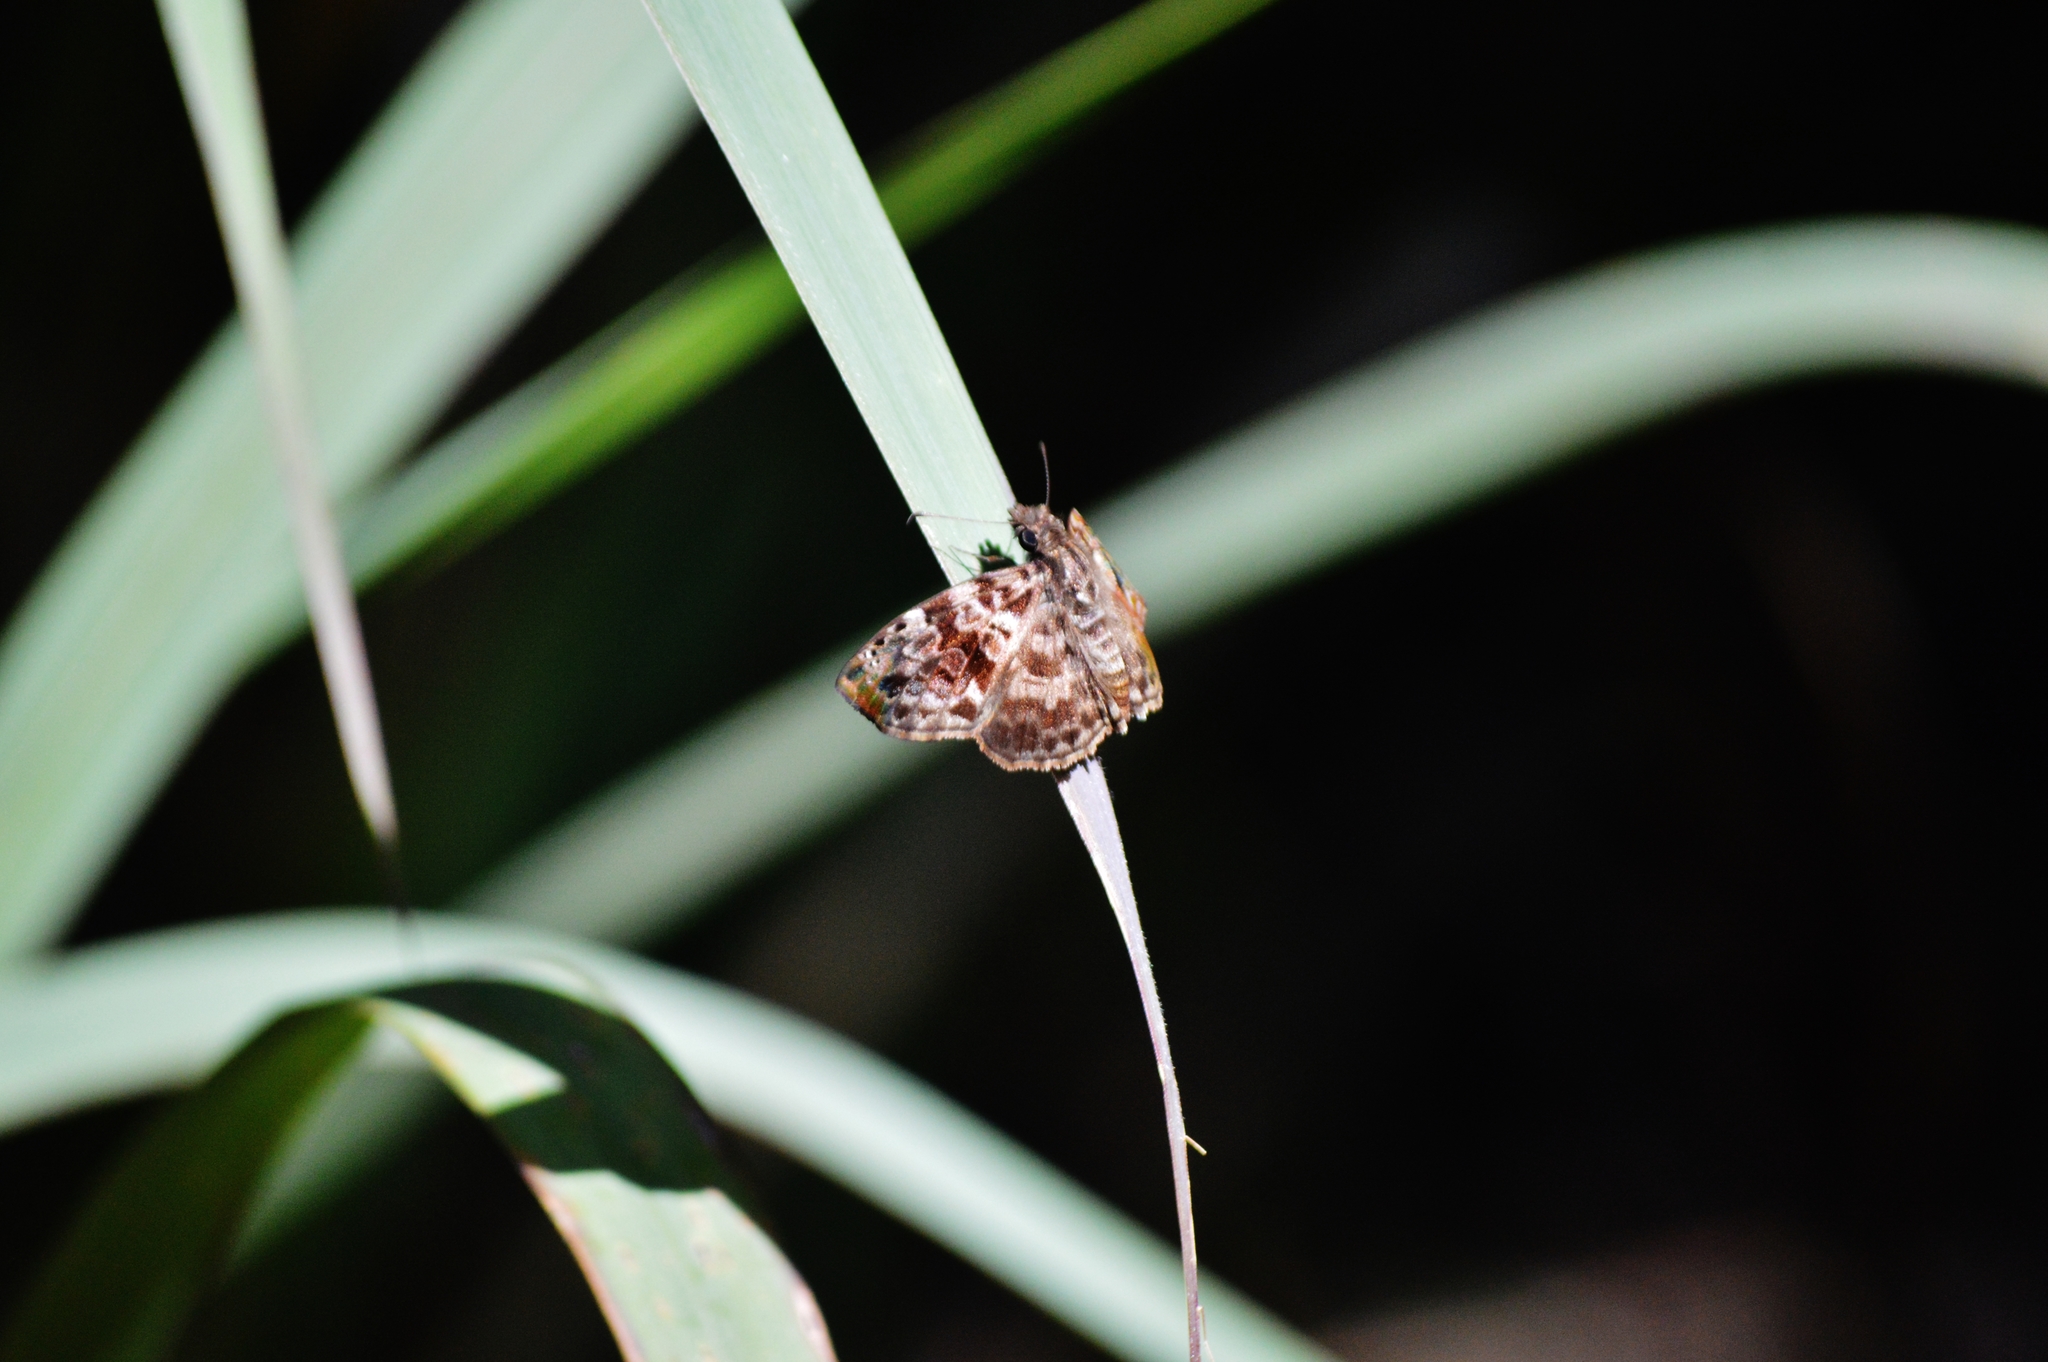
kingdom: Animalia
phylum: Arthropoda
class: Insecta
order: Lepidoptera
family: Hesperiidae
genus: Gorgythion
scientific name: Gorgythion begga
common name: Variegated skipper
